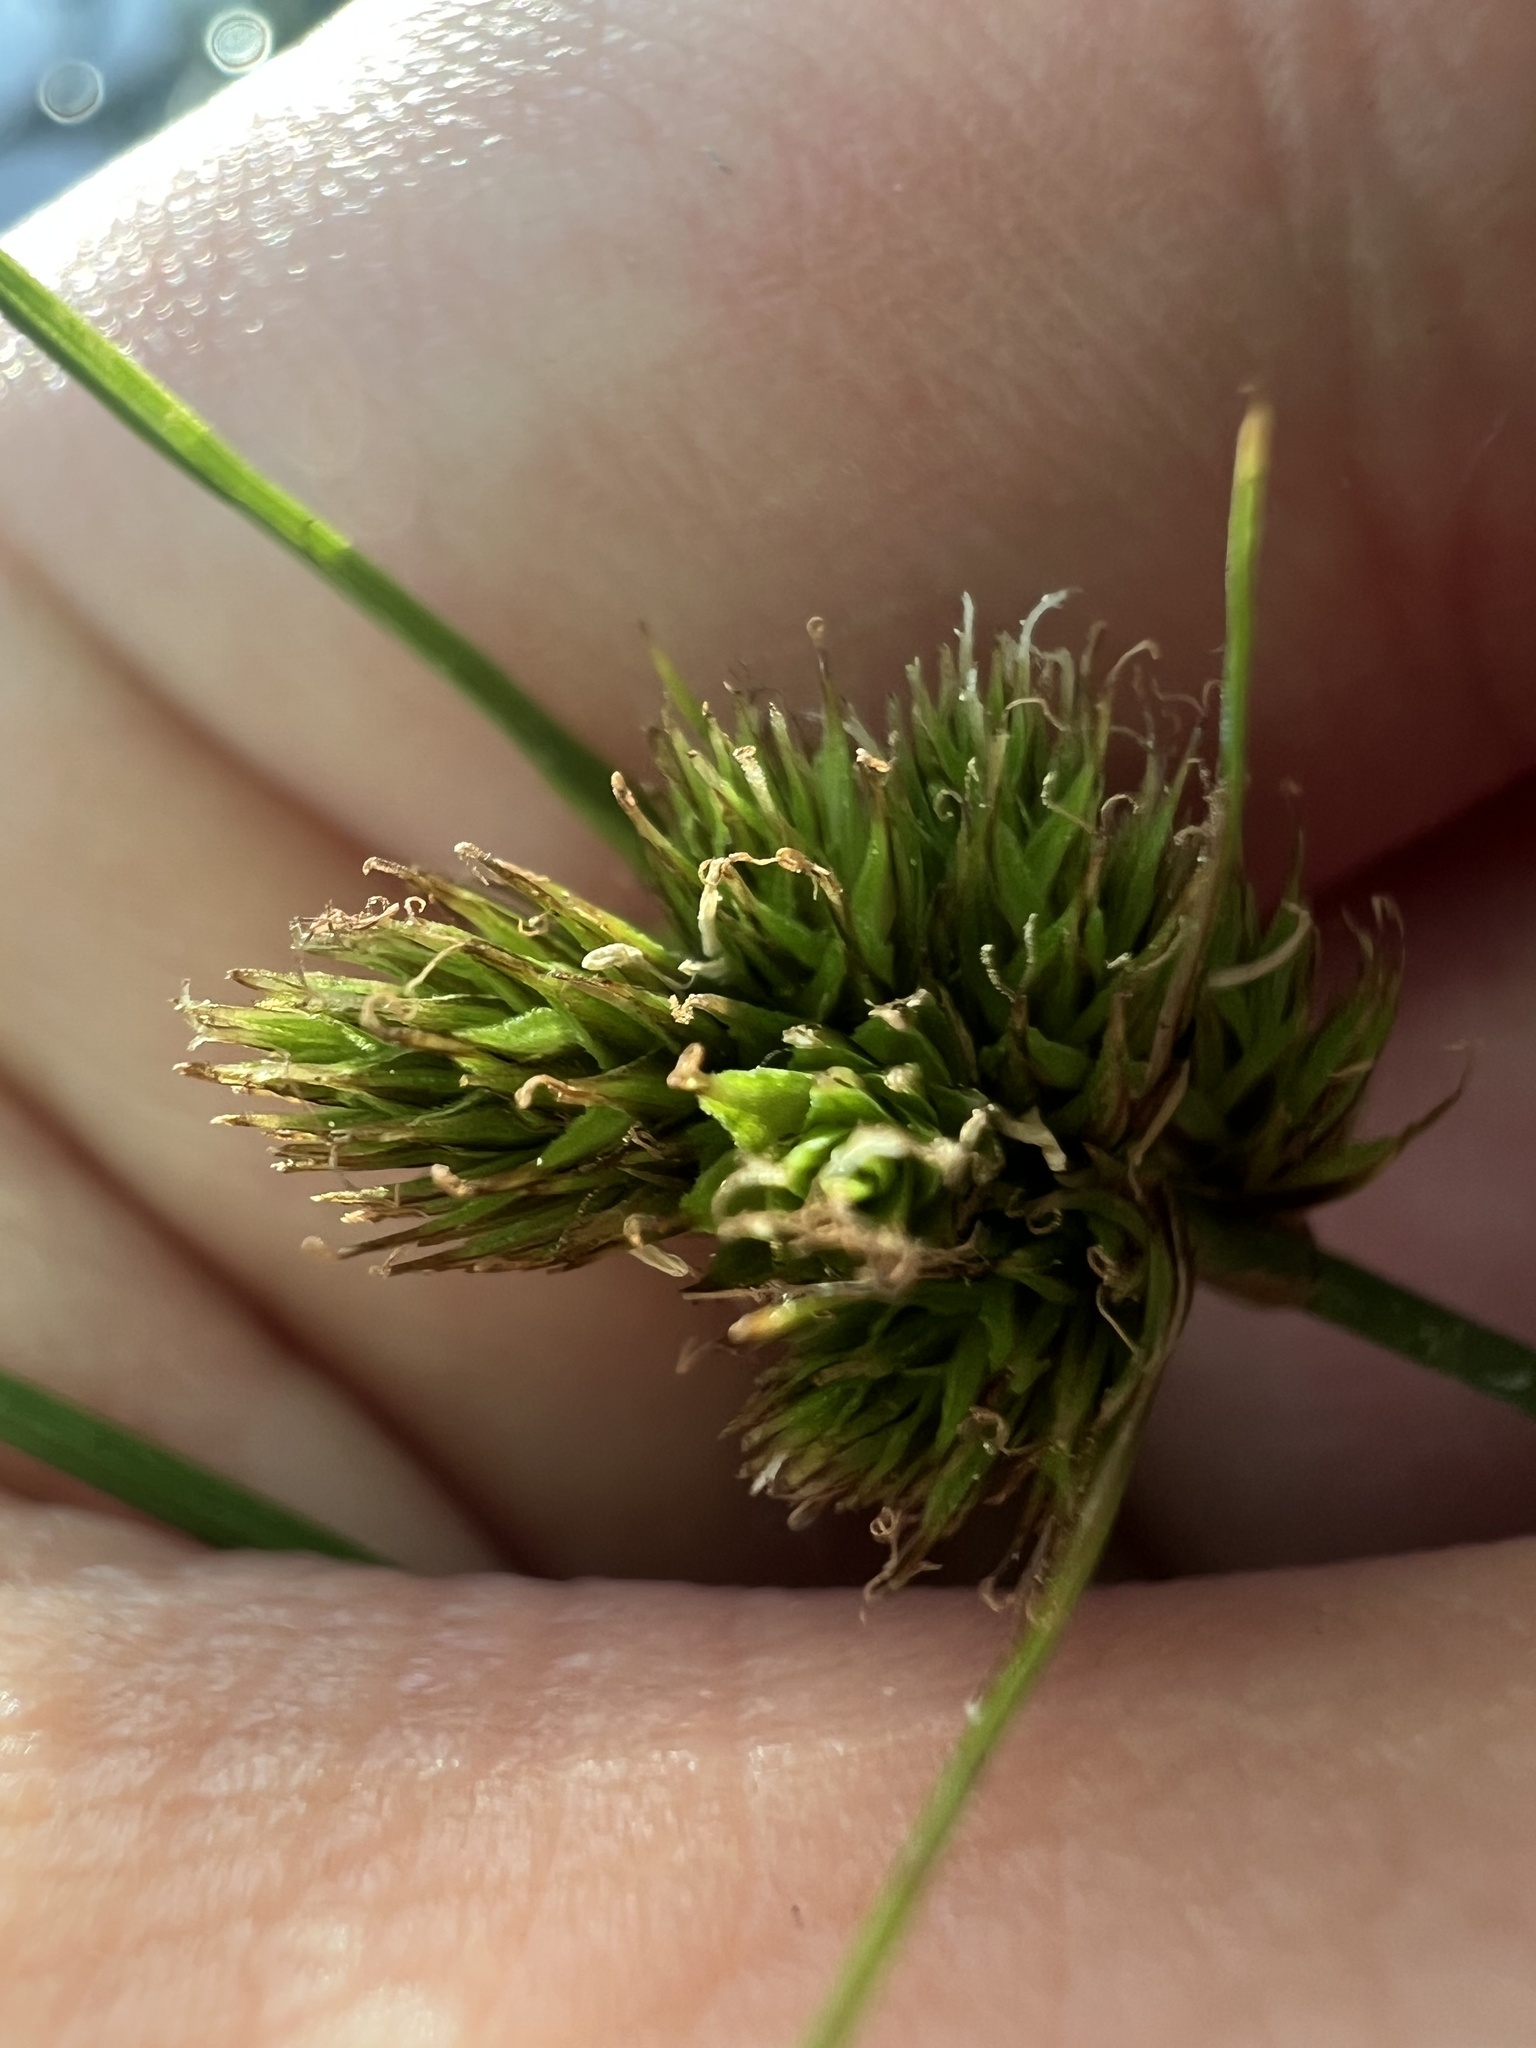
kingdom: Plantae
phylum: Tracheophyta
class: Liliopsida
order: Poales
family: Cyperaceae
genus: Carex
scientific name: Carex athrostachya
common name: Slenderbeak sedge
